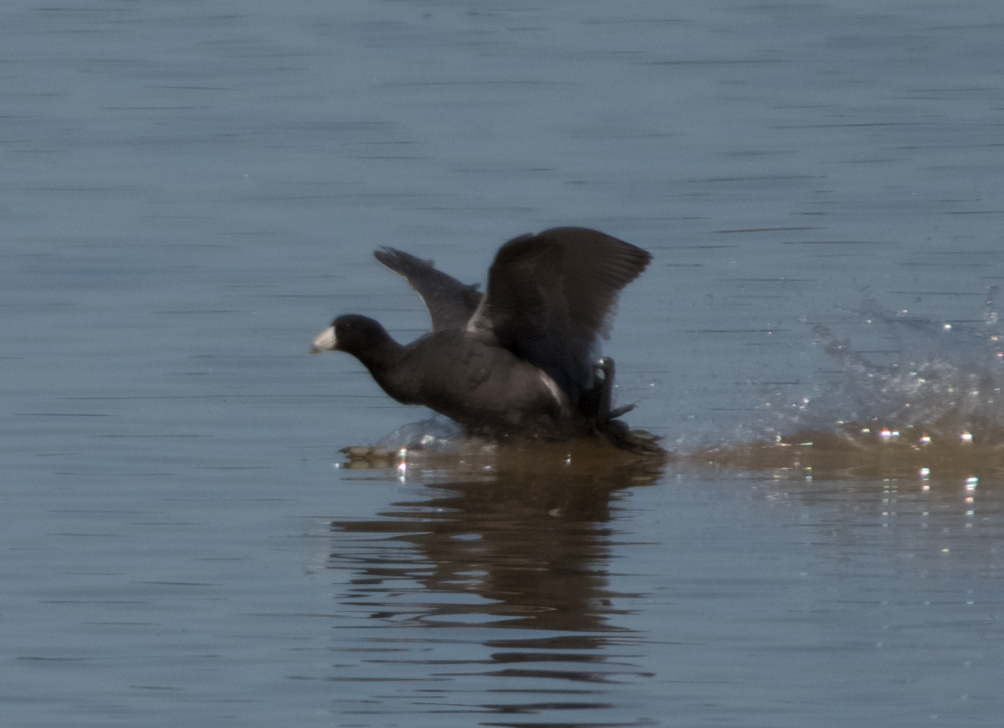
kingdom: Animalia
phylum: Chordata
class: Aves
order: Gruiformes
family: Rallidae
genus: Fulica
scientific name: Fulica americana
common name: American coot
